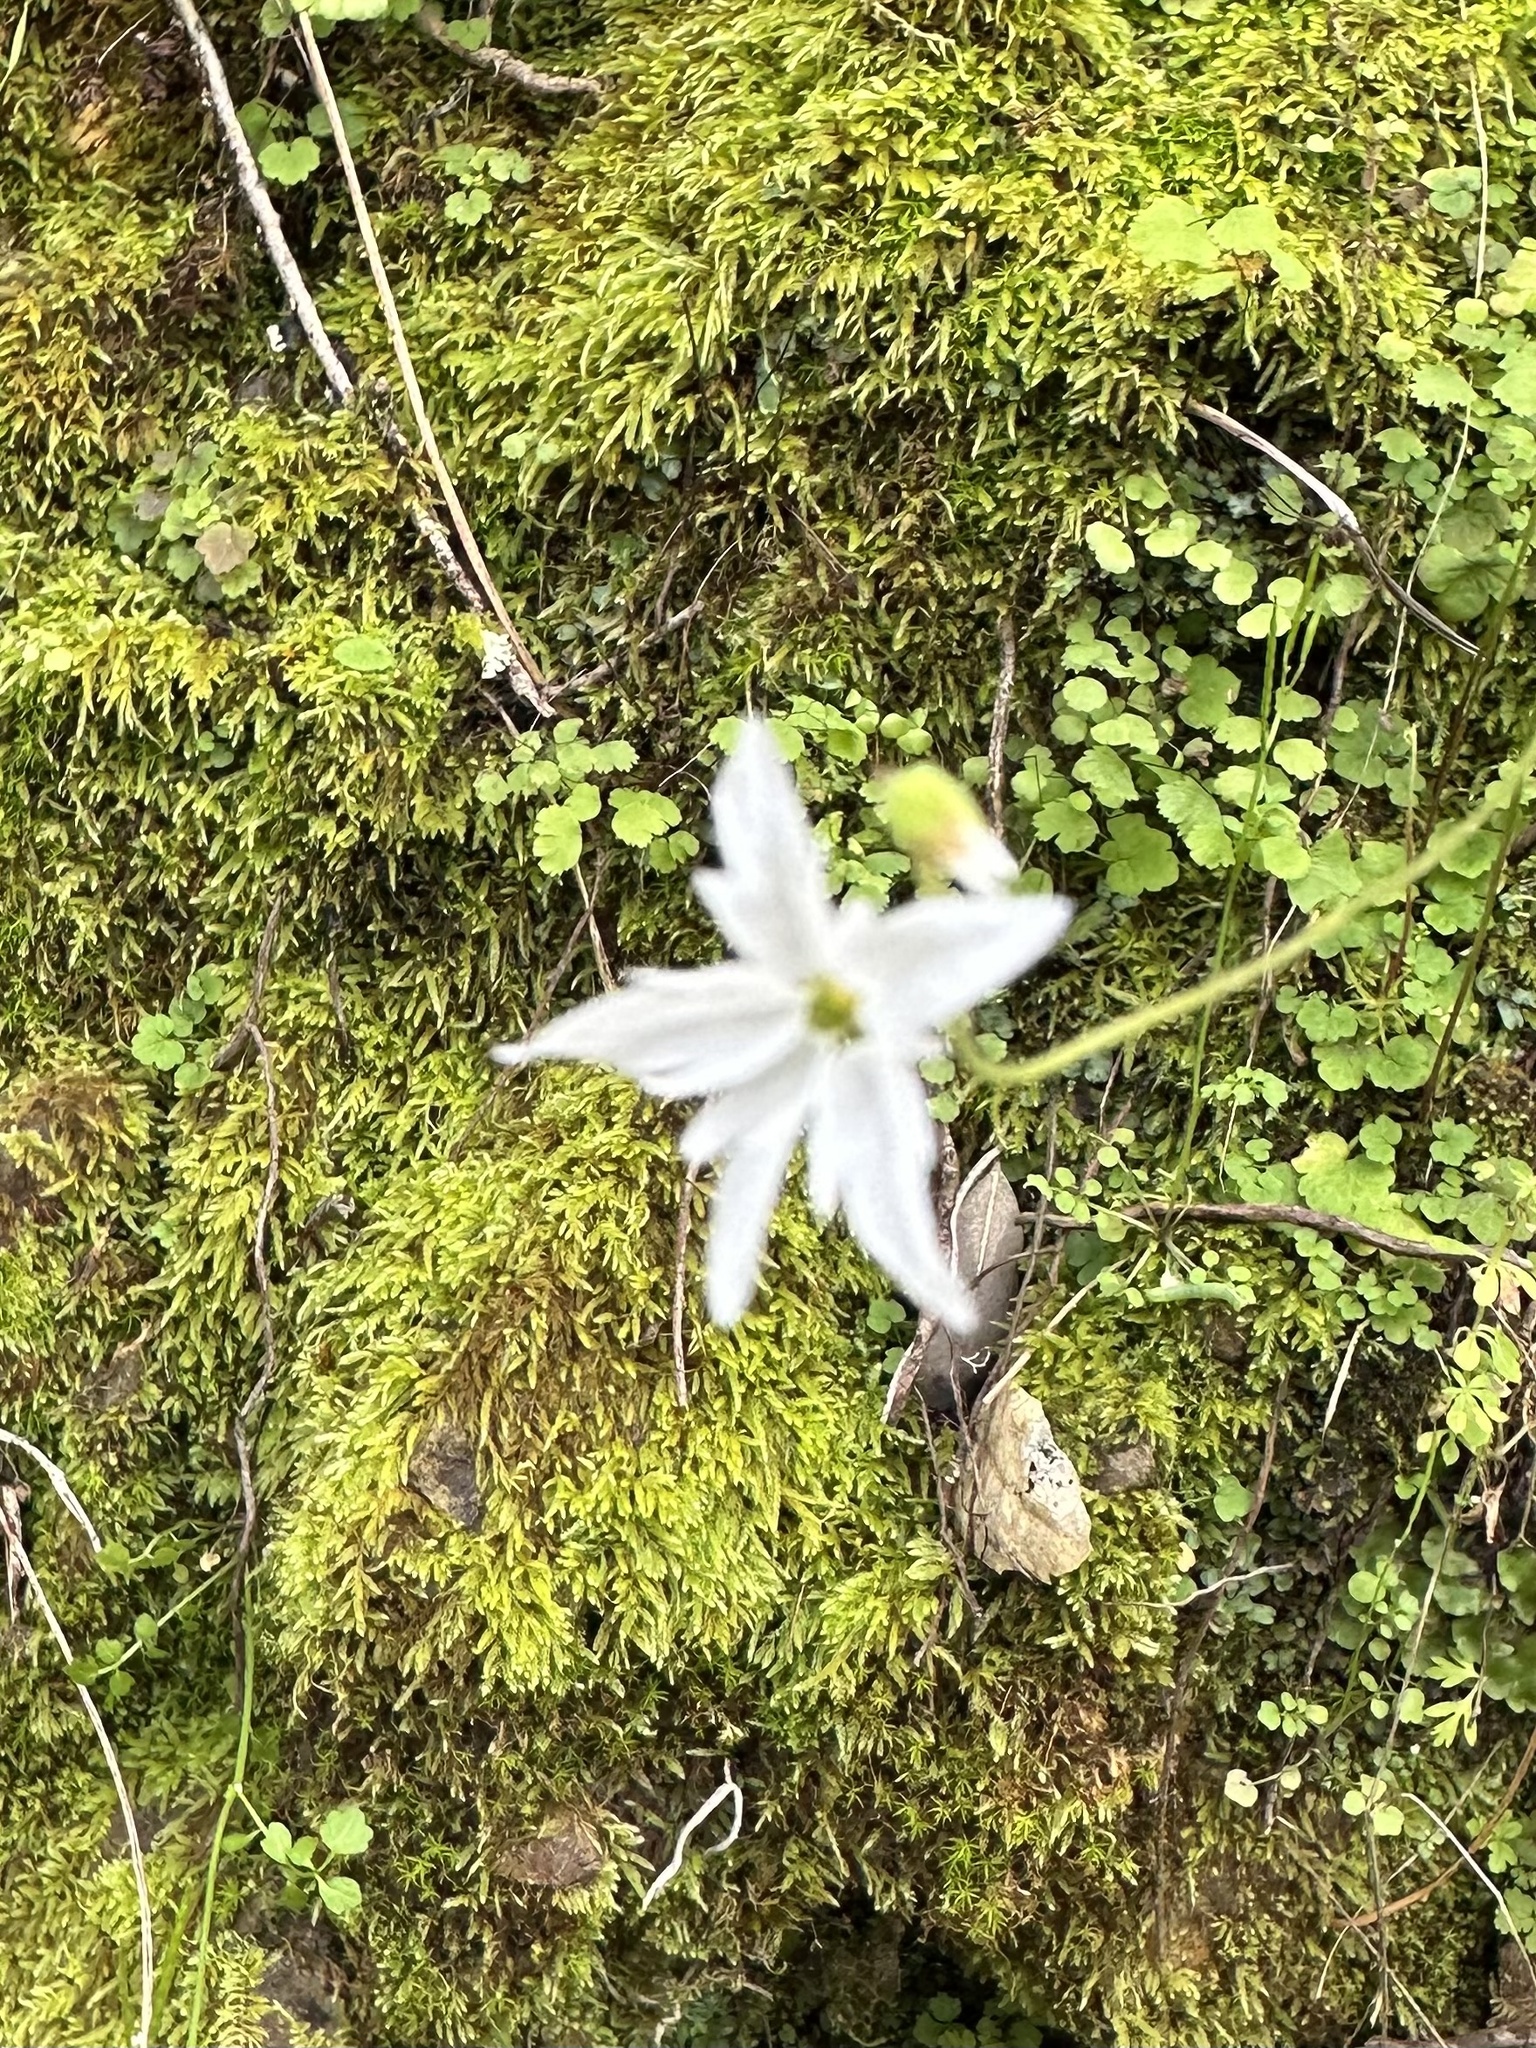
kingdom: Plantae
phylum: Tracheophyta
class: Magnoliopsida
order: Saxifragales
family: Saxifragaceae
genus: Lithophragma
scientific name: Lithophragma heterophyllum
